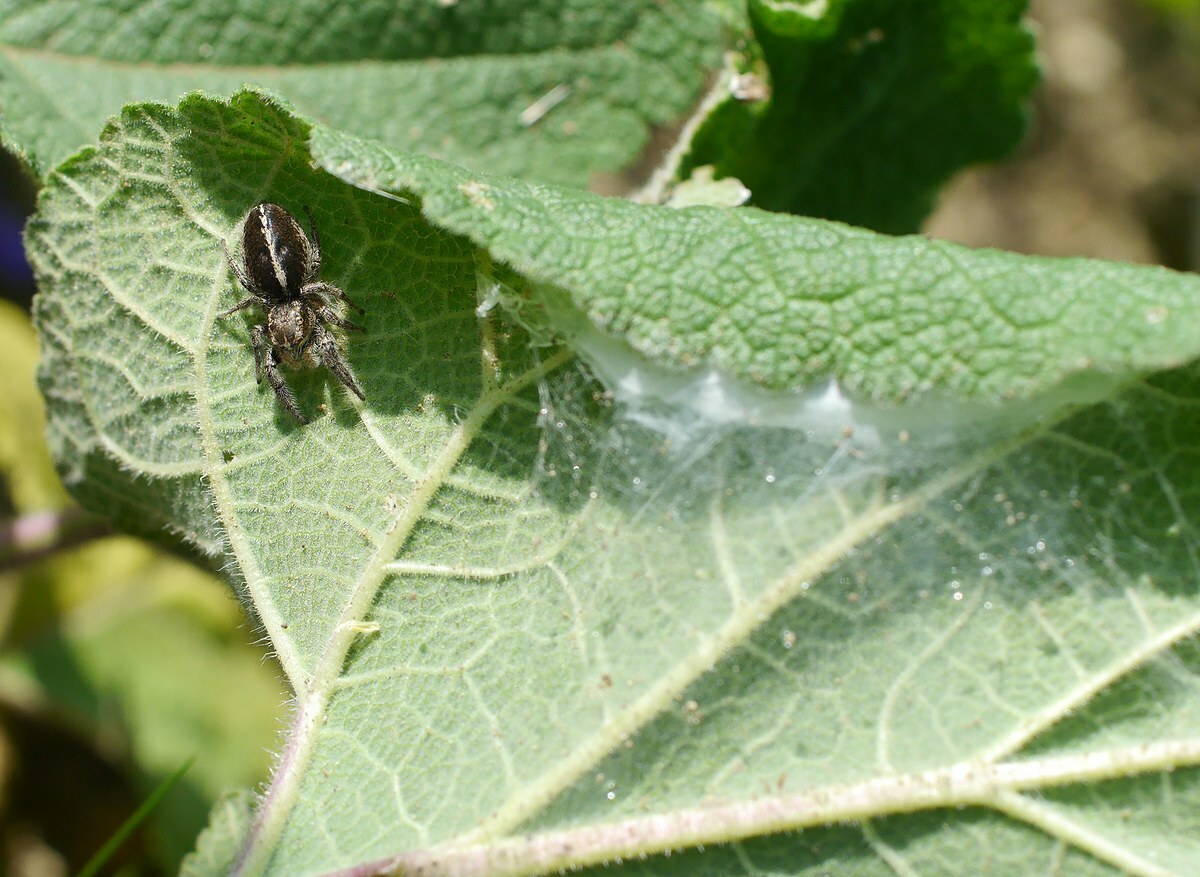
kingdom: Animalia
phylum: Arthropoda
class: Arachnida
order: Araneae
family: Salticidae
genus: Pellenes
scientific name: Pellenes seriatus
